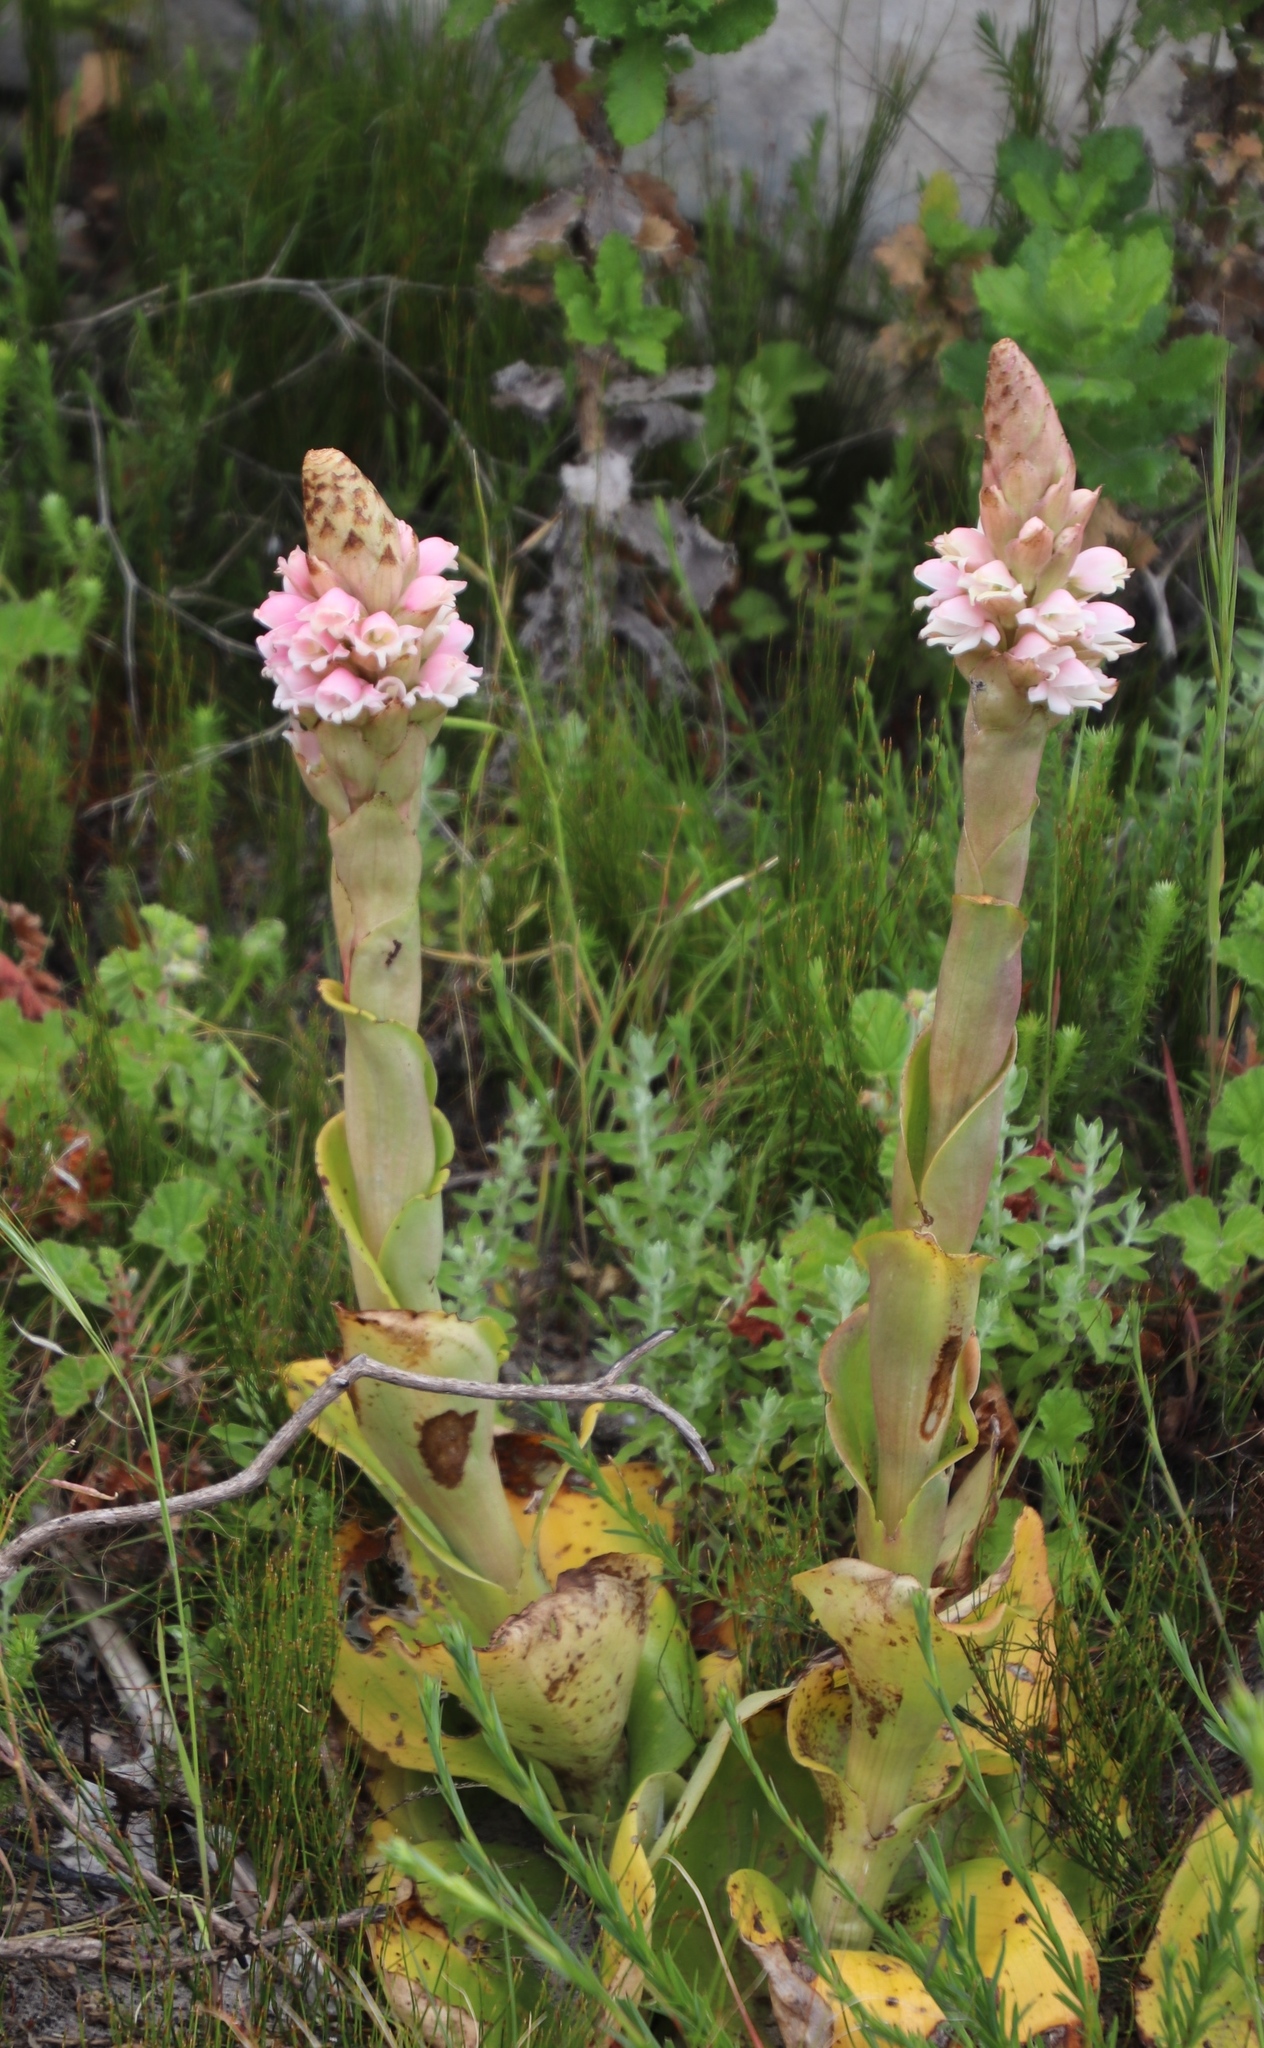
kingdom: Plantae
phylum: Tracheophyta
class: Liliopsida
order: Asparagales
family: Orchidaceae
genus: Satyrium
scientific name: Satyrium carneum
